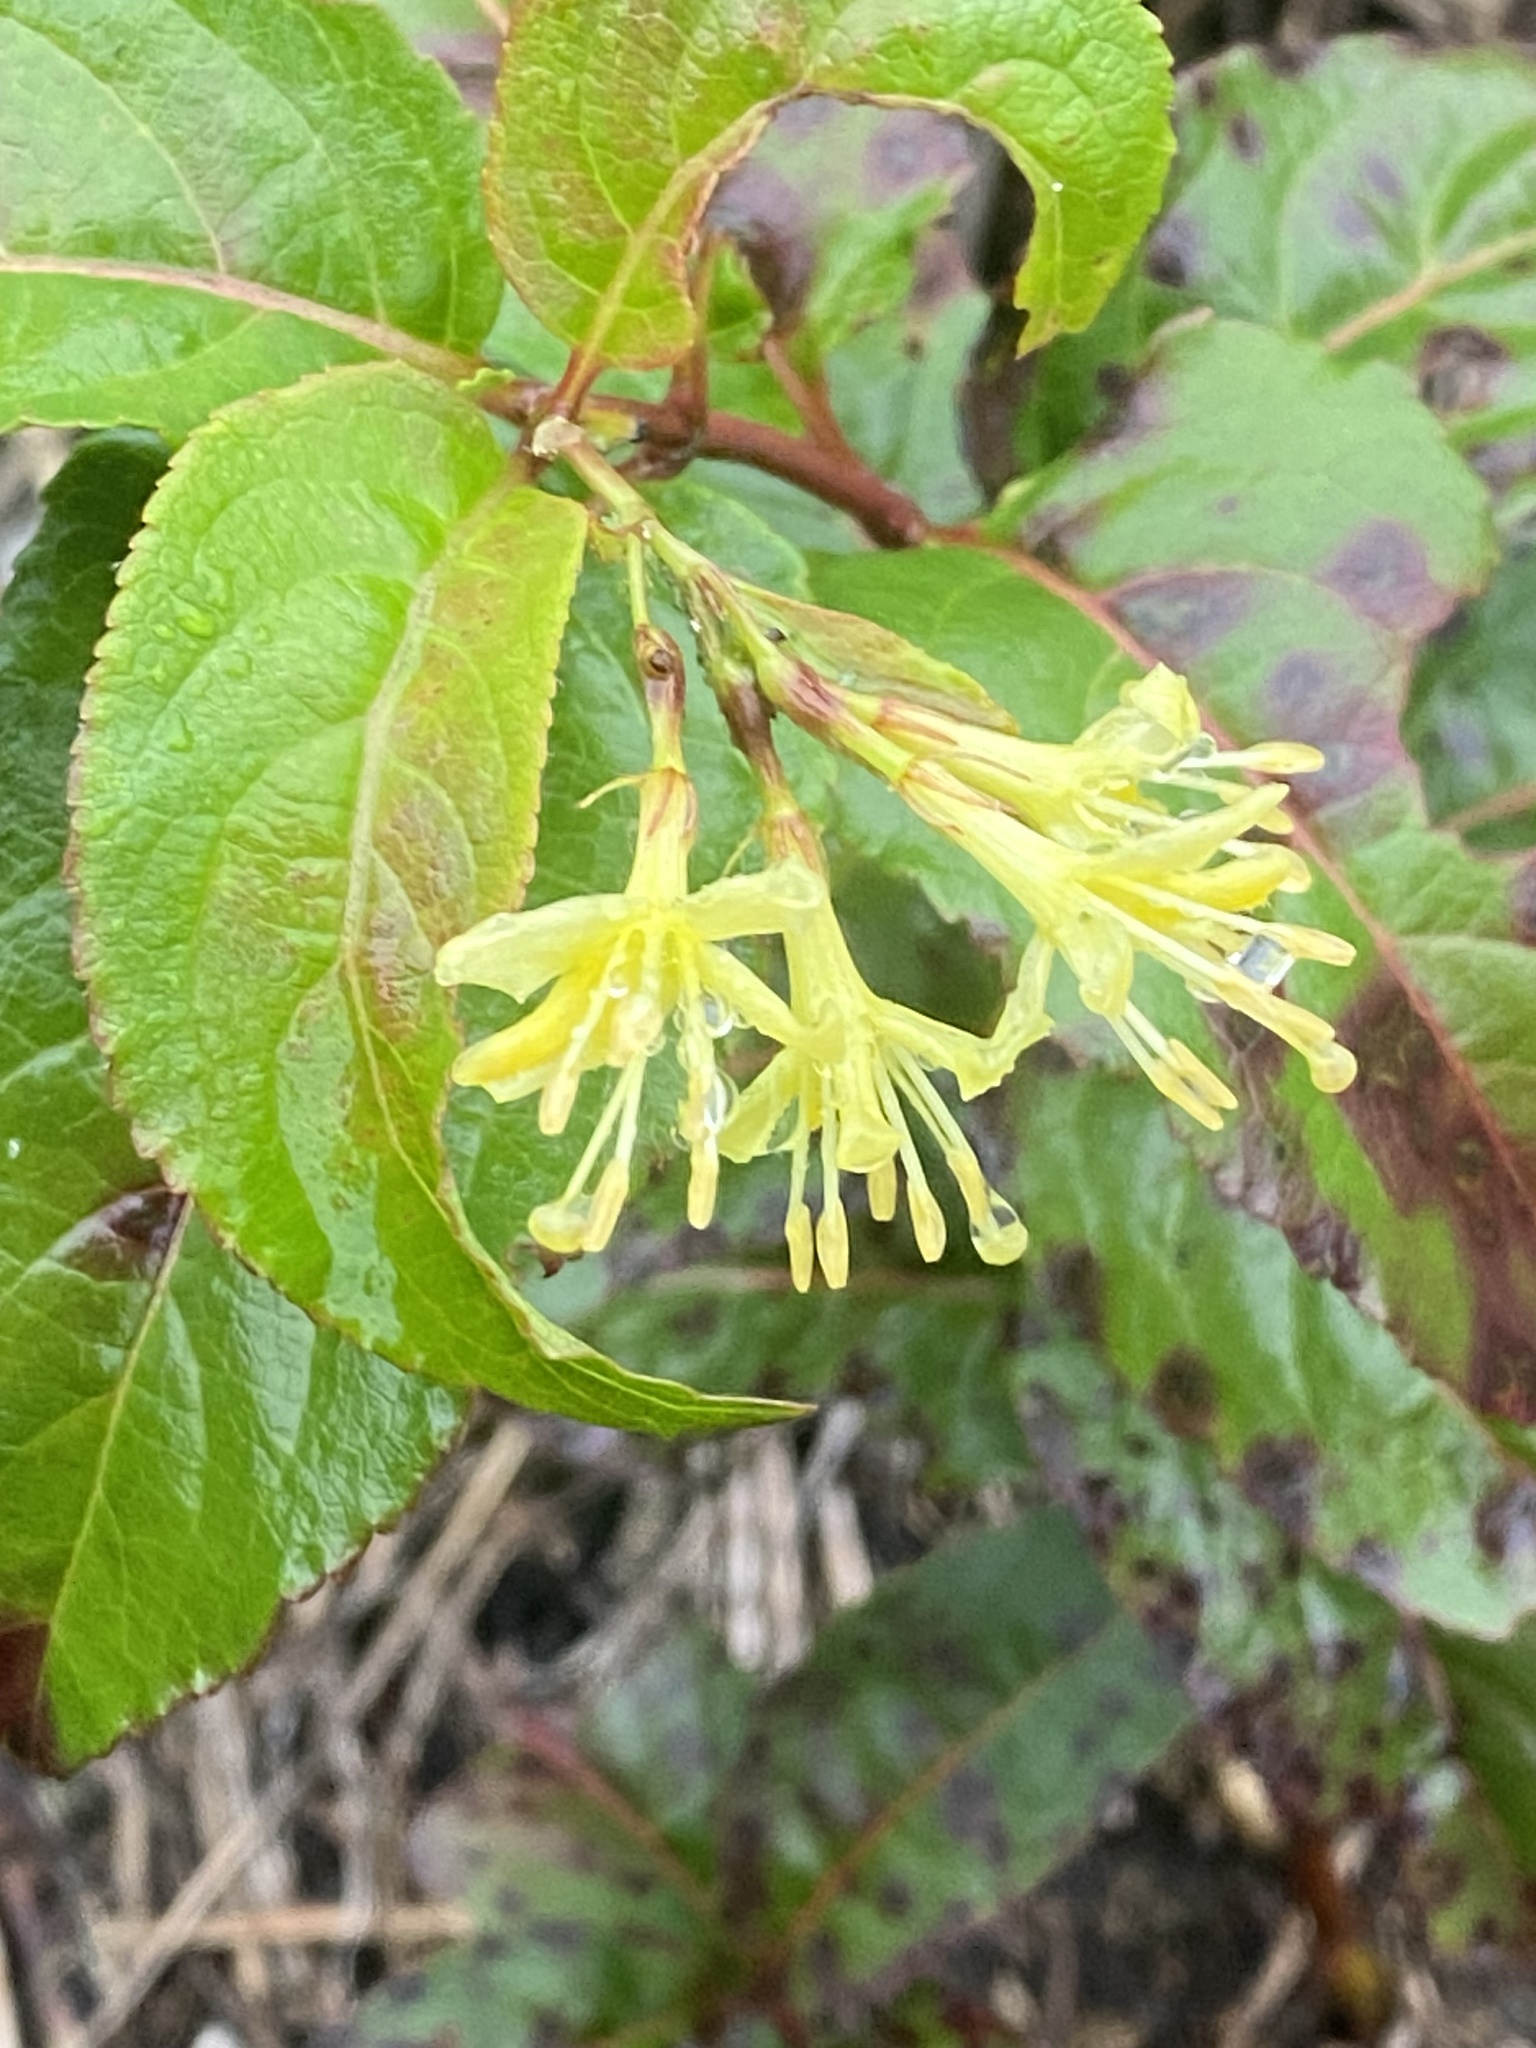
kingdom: Plantae
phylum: Tracheophyta
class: Magnoliopsida
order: Dipsacales
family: Caprifoliaceae
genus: Diervilla
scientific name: Diervilla lonicera
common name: Bush-honeysuckle
